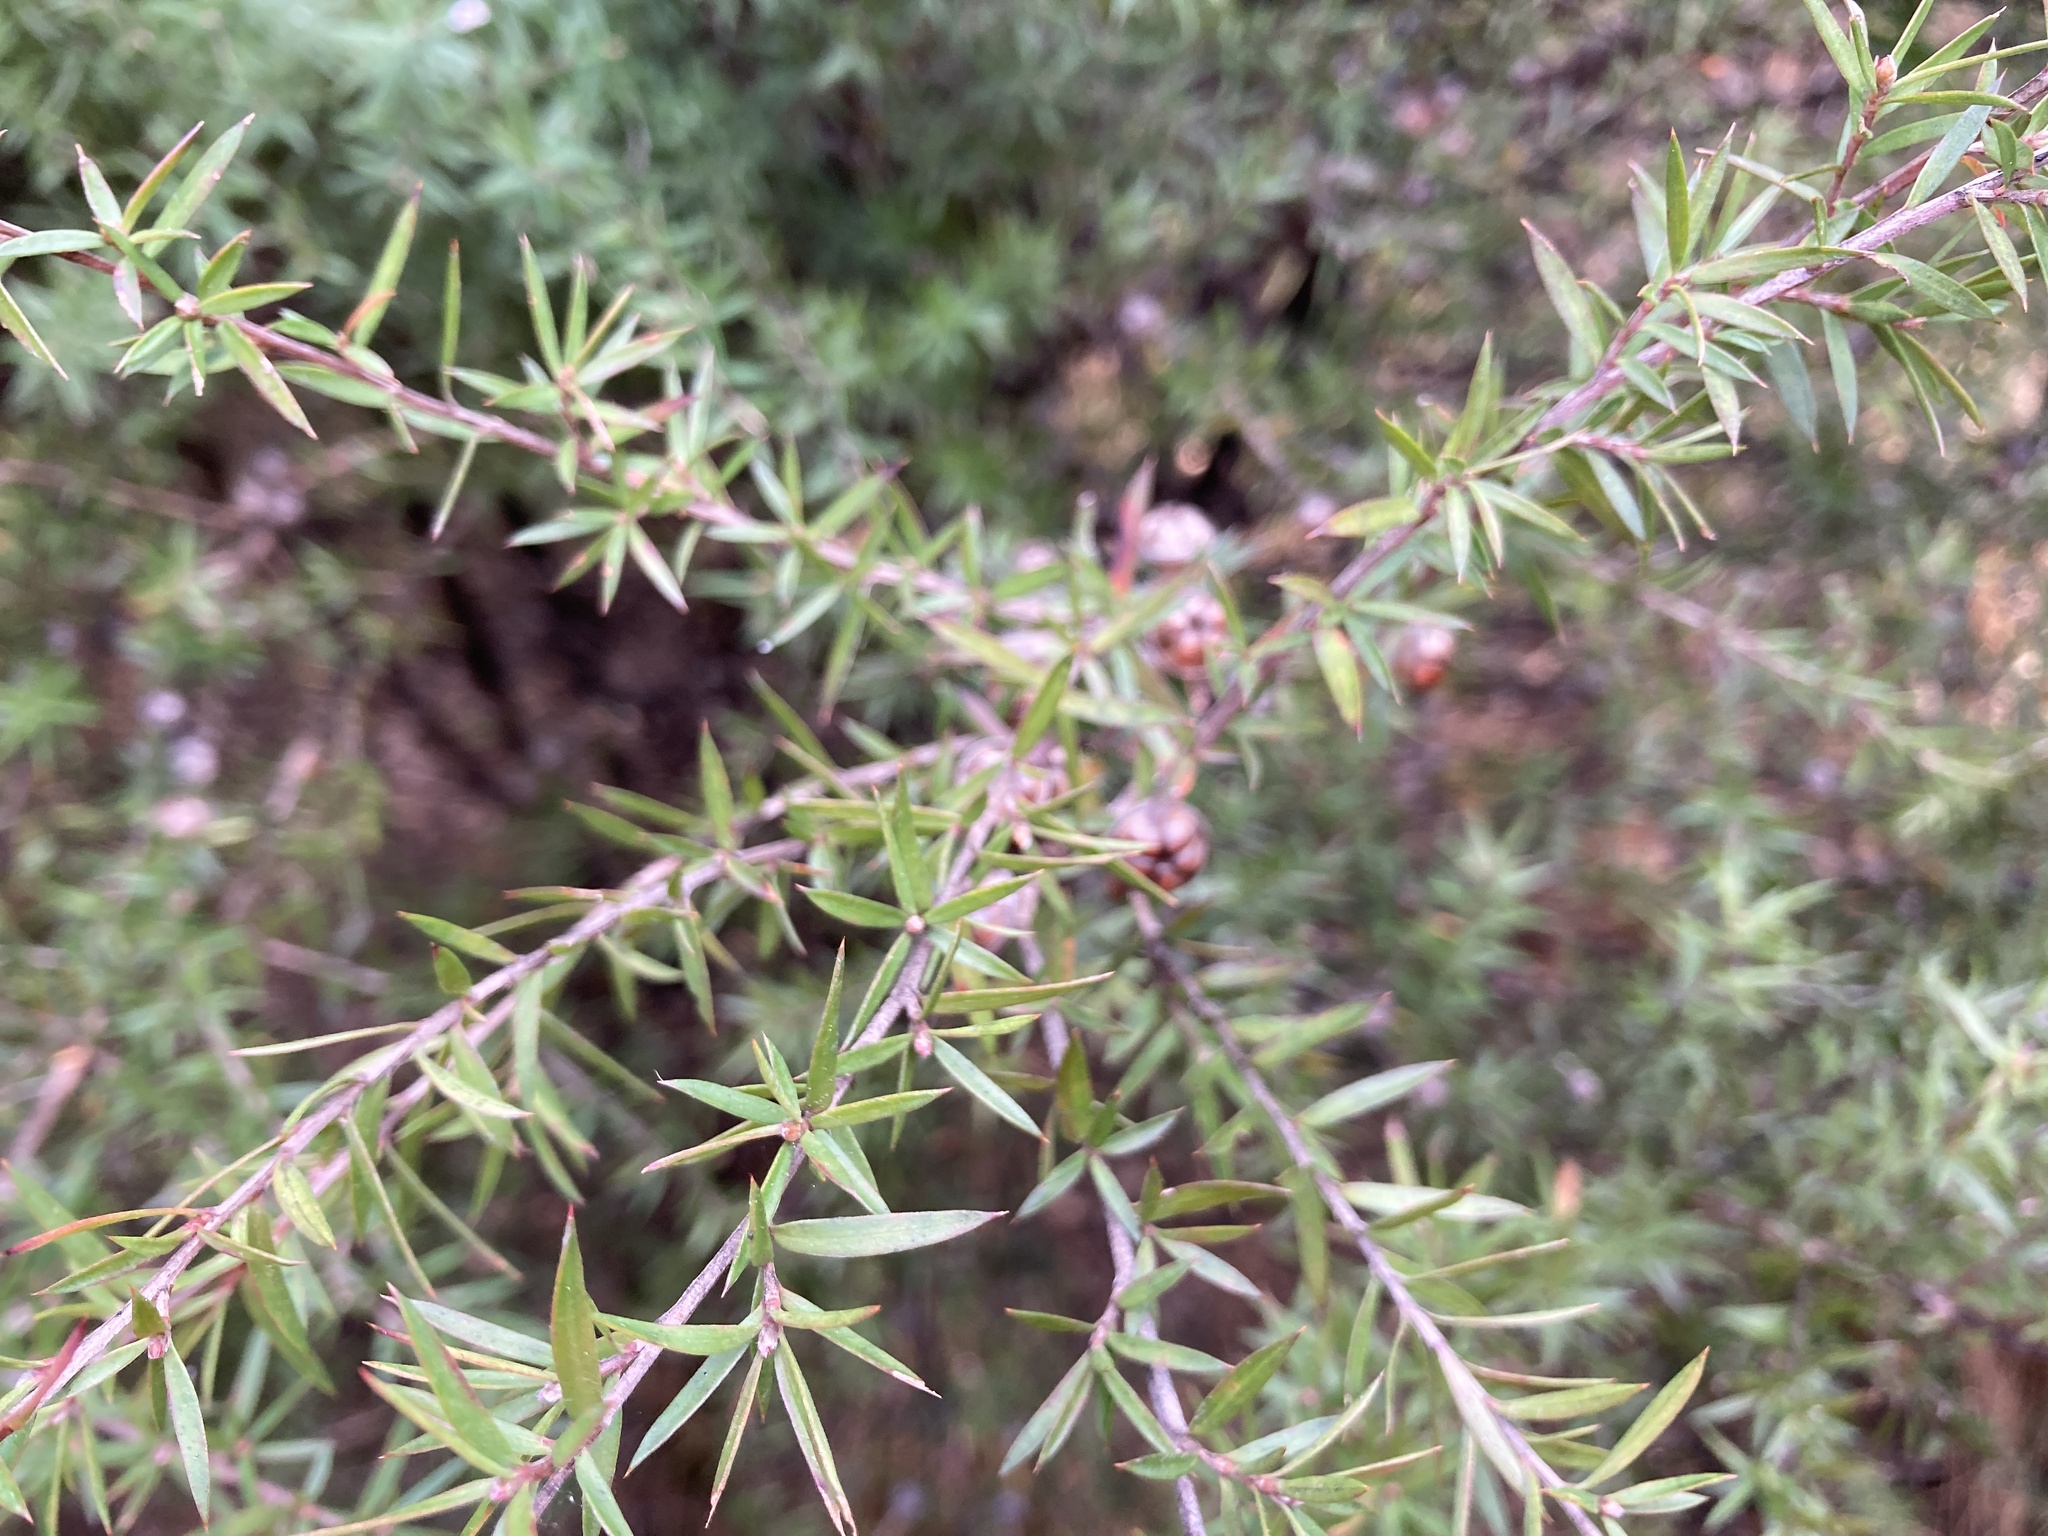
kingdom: Plantae
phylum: Tracheophyta
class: Magnoliopsida
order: Myrtales
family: Myrtaceae
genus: Leptospermum
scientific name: Leptospermum scoparium
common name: Broom tea-tree
